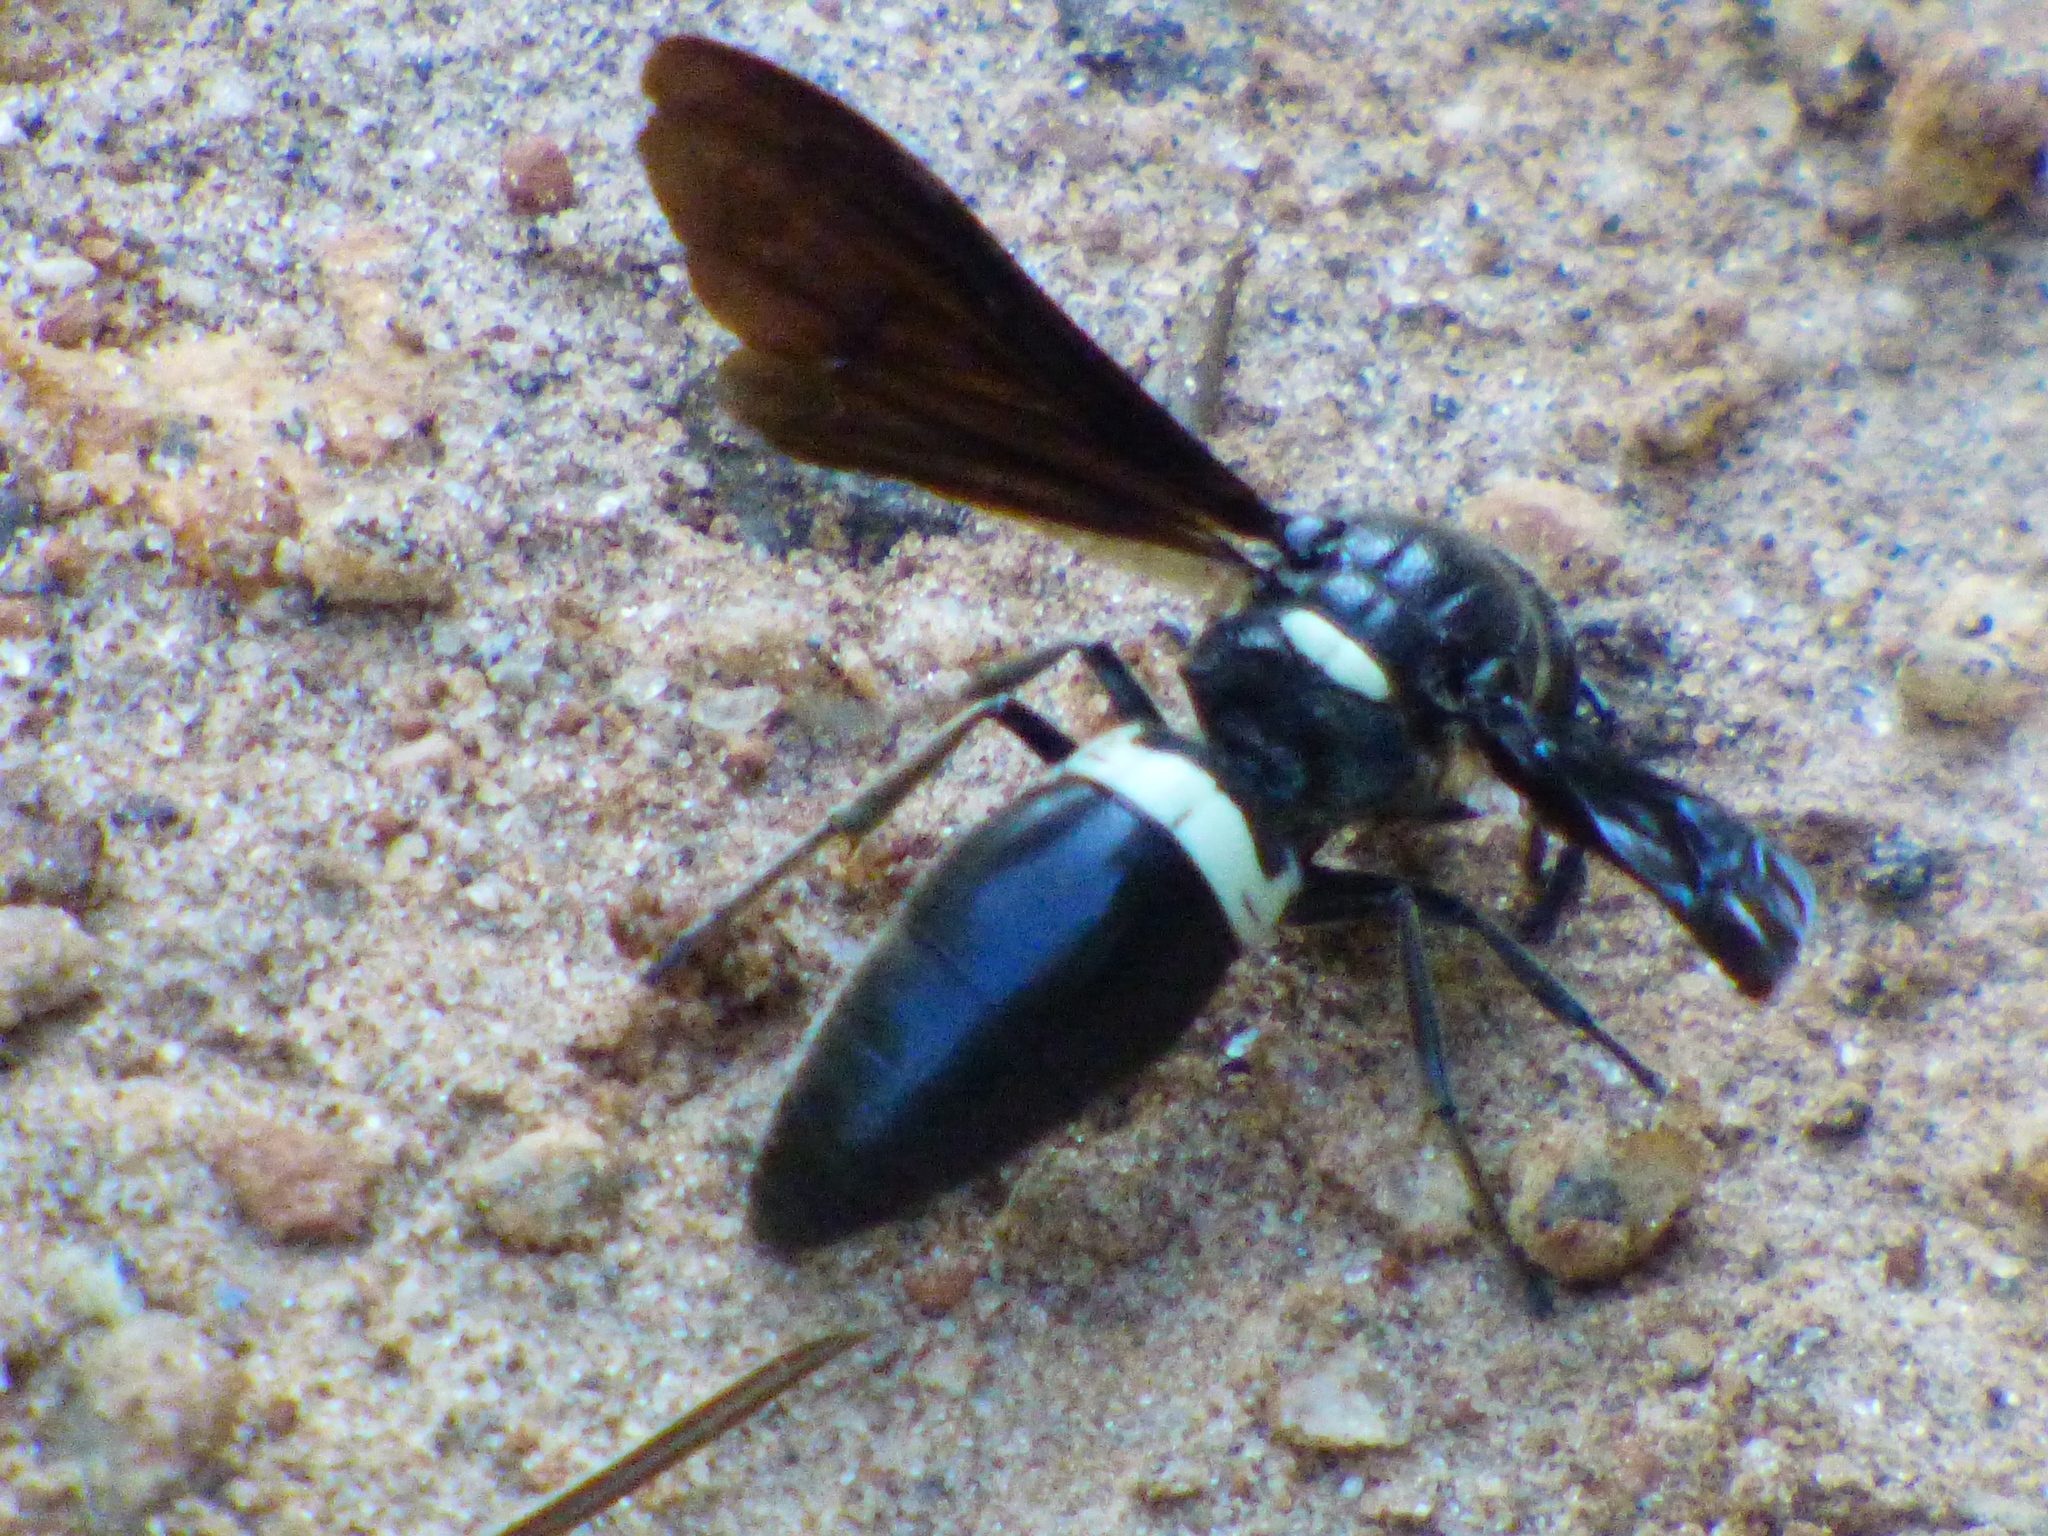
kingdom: Animalia
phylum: Arthropoda
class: Insecta
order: Hymenoptera
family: Eumenidae
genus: Monobia
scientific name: Monobia quadridens
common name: Four-toothed mason wasp
